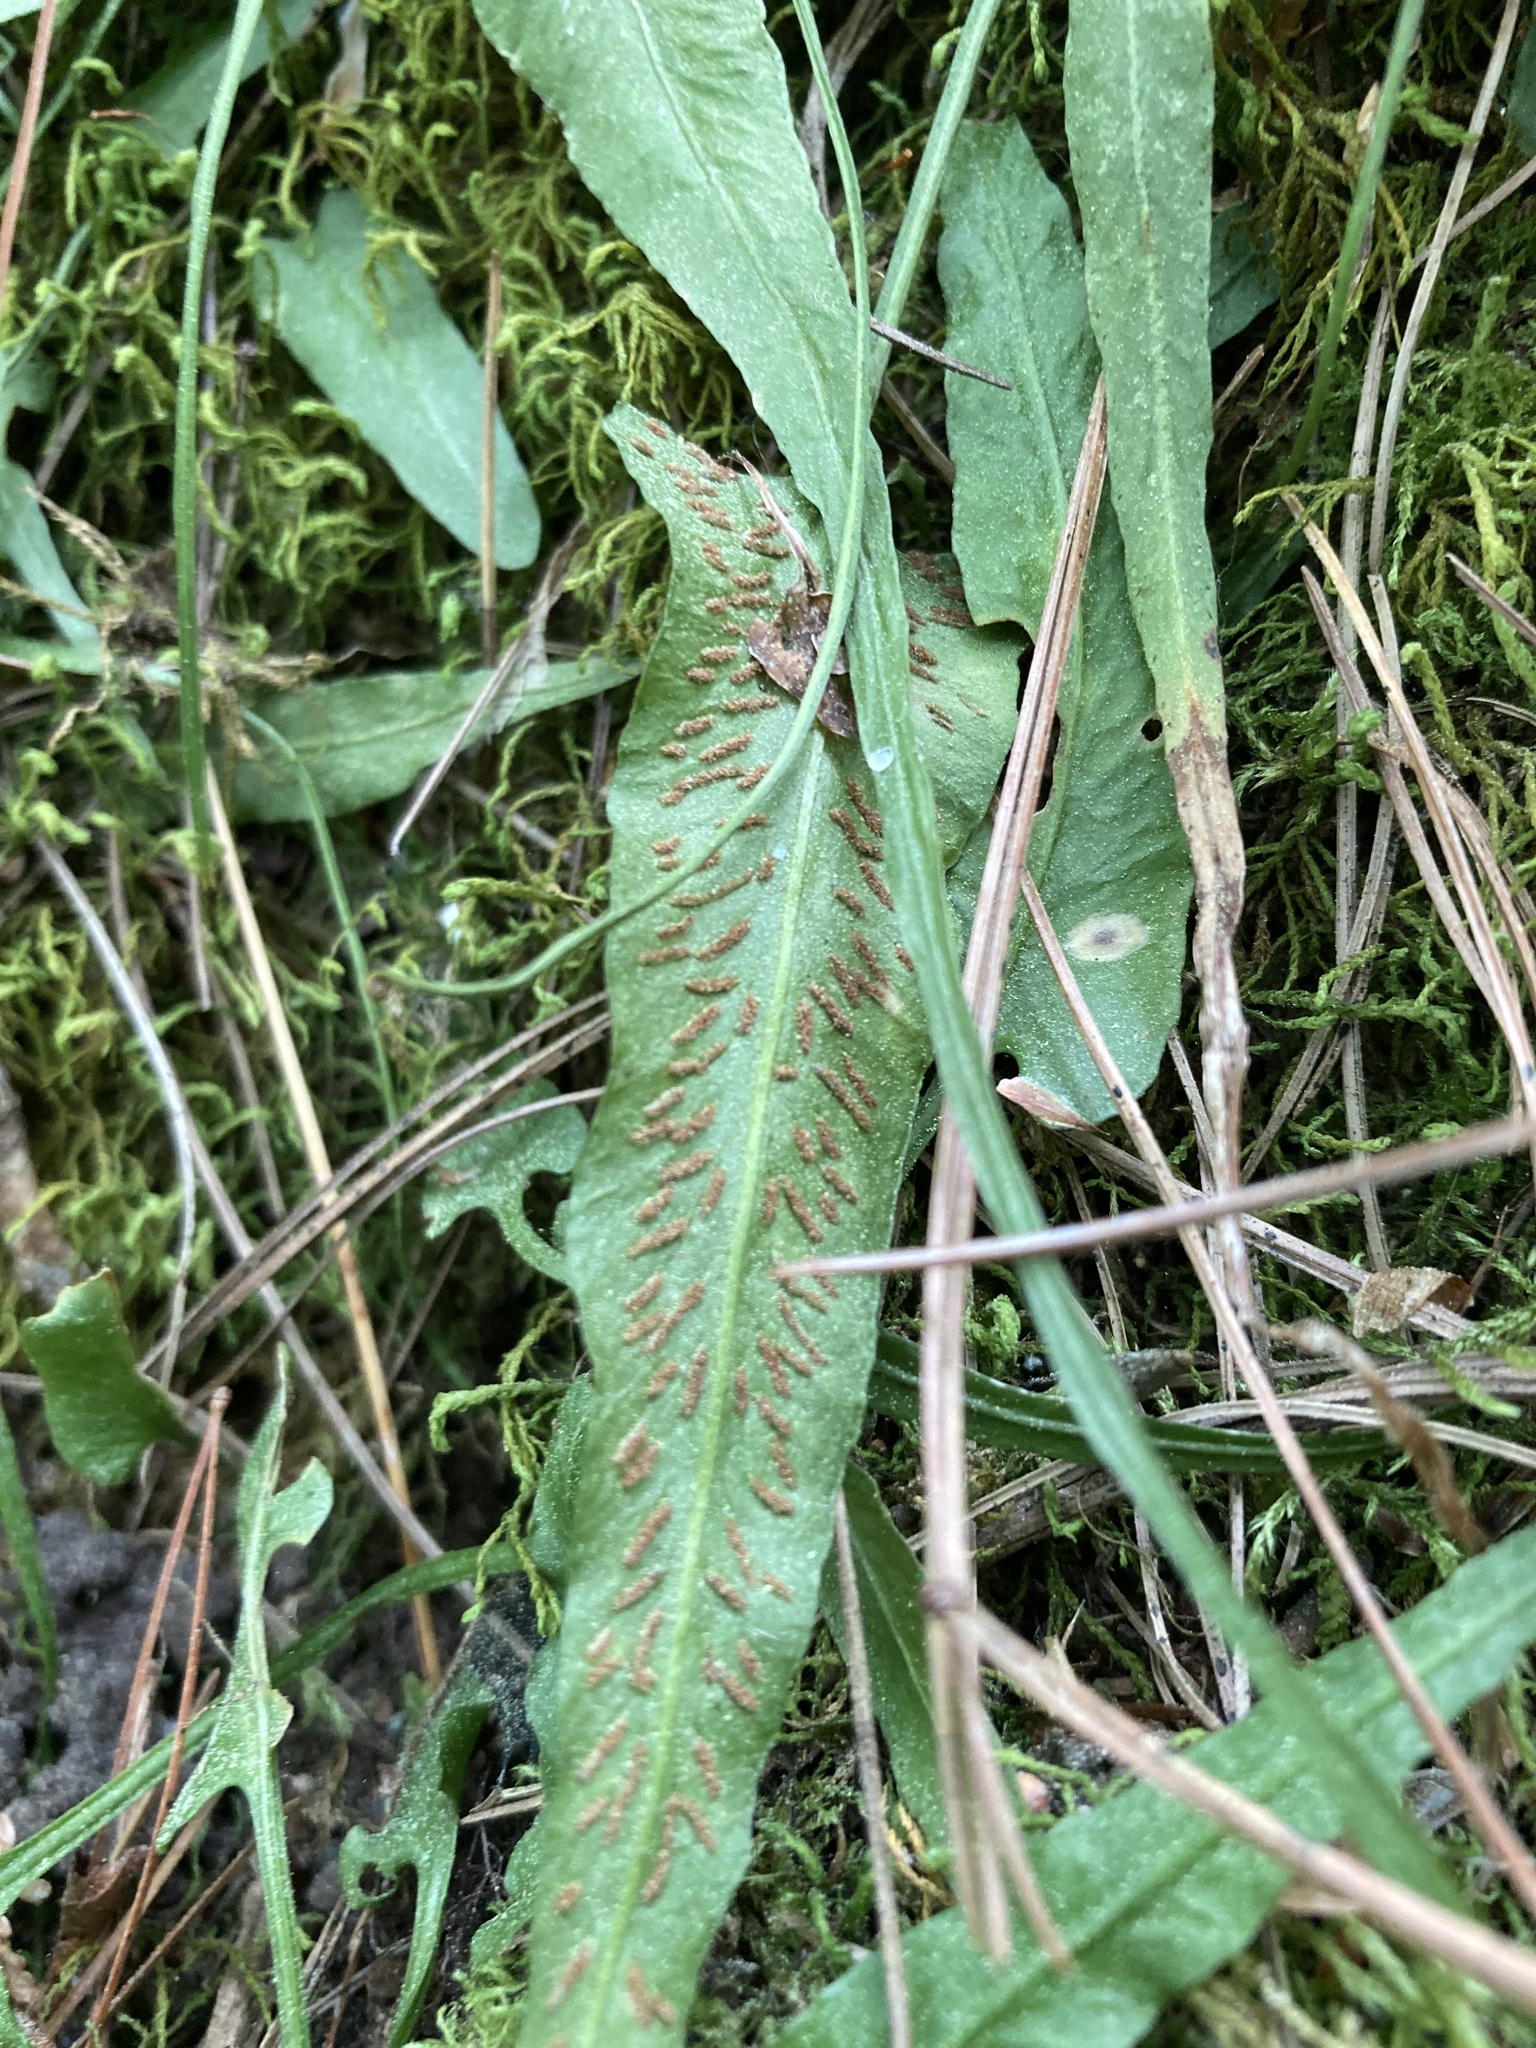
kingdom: Plantae
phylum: Tracheophyta
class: Polypodiopsida
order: Polypodiales
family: Aspleniaceae
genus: Asplenium
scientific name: Asplenium rhizophyllum
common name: Walking fern
